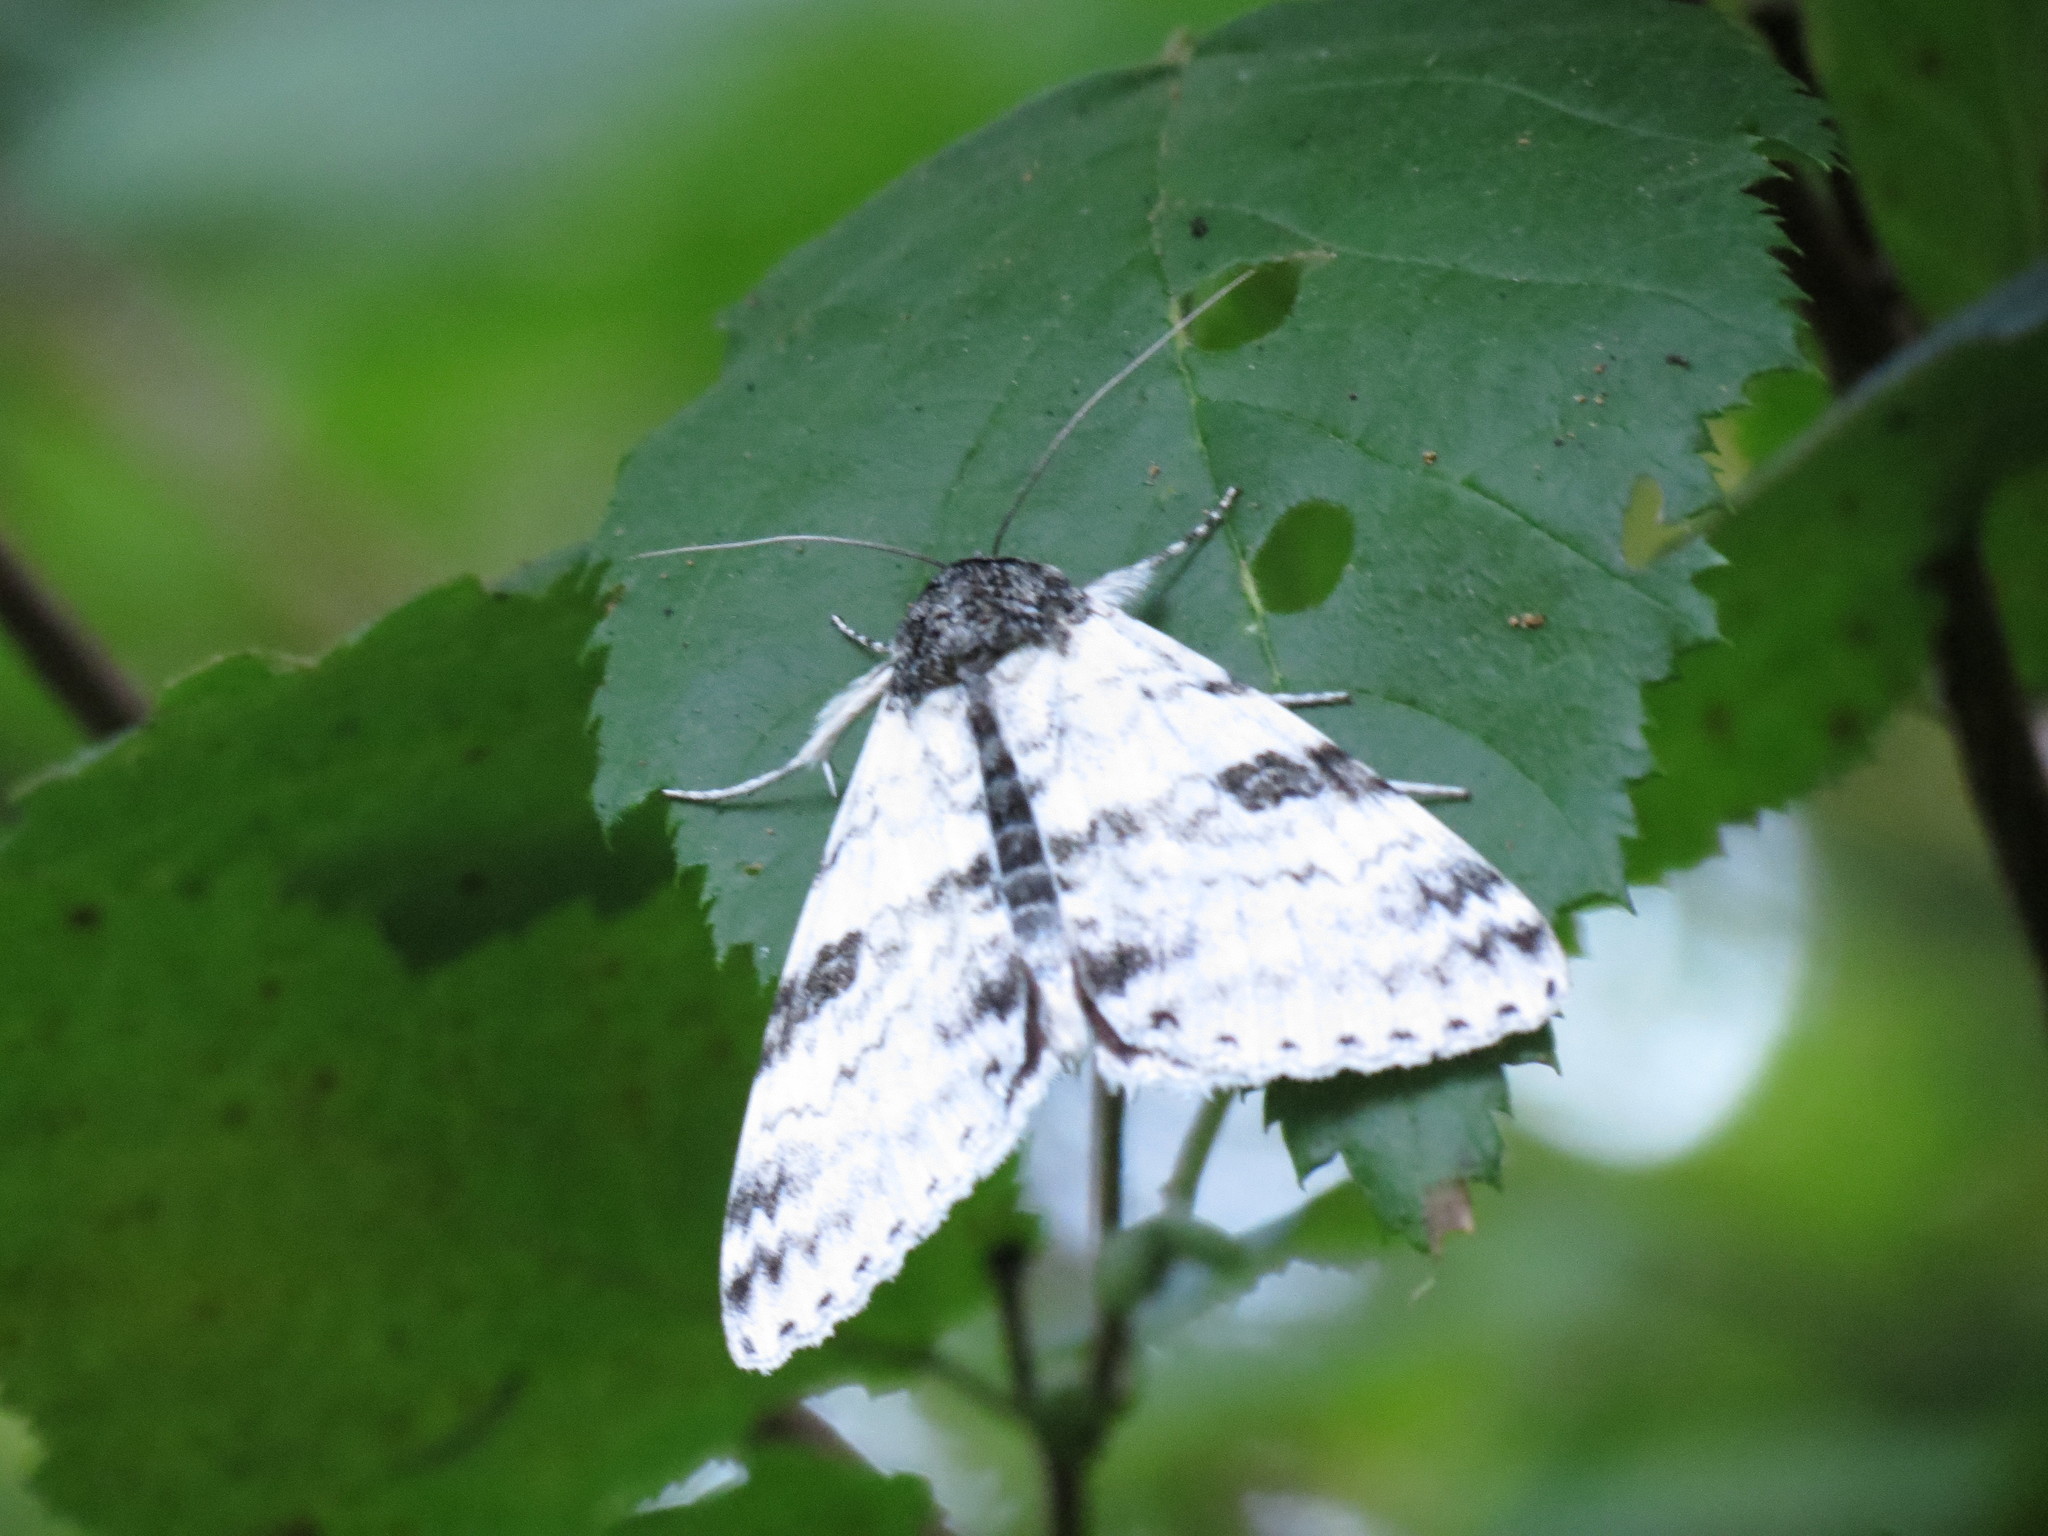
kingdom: Animalia
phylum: Arthropoda
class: Insecta
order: Lepidoptera
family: Erebidae
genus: Catocala
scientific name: Catocala relicta
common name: White underwing
